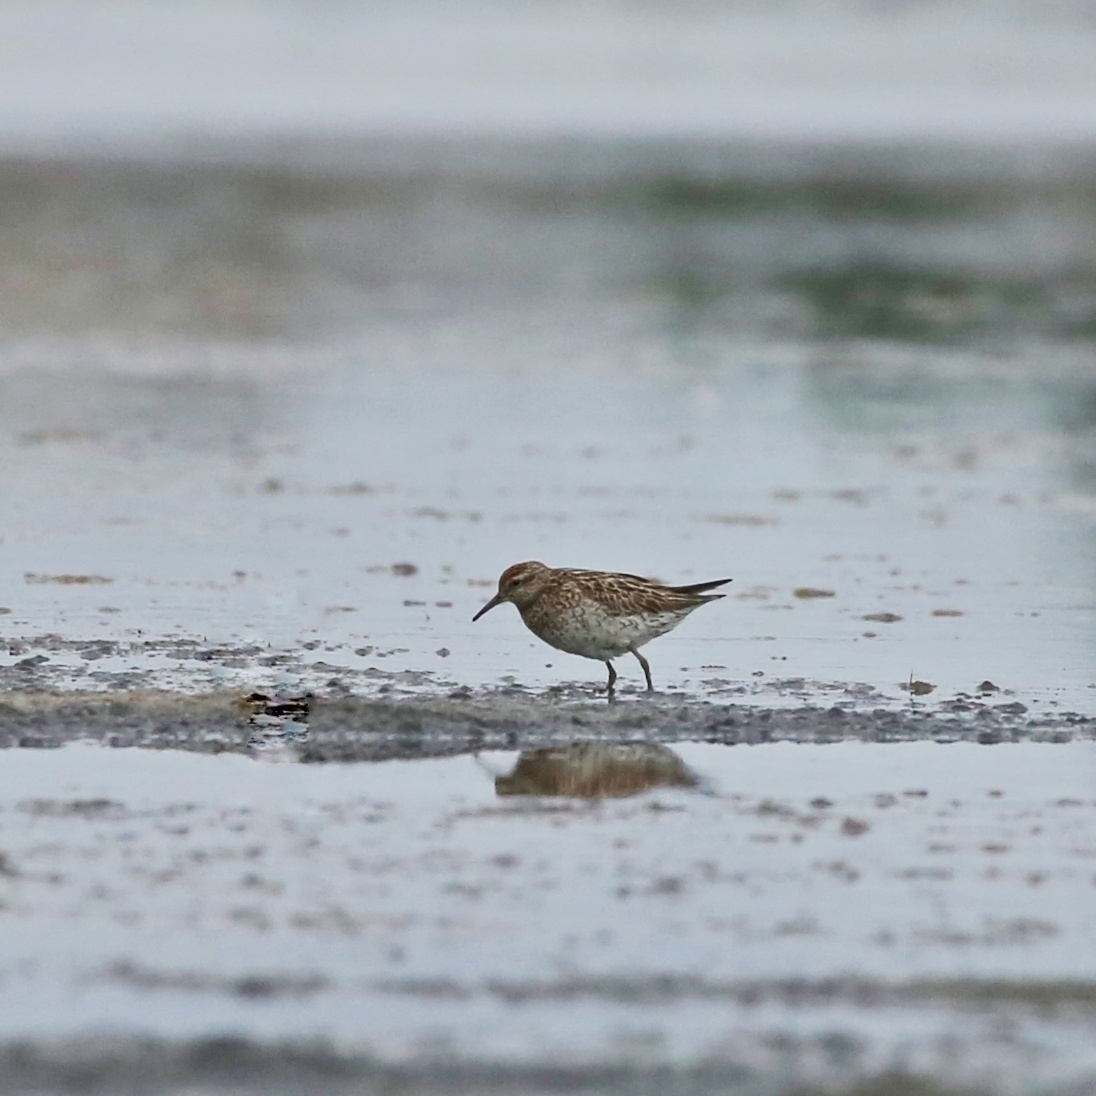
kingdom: Animalia
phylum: Chordata
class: Aves
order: Charadriiformes
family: Scolopacidae
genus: Calidris
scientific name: Calidris acuminata
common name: Sharp-tailed sandpiper
